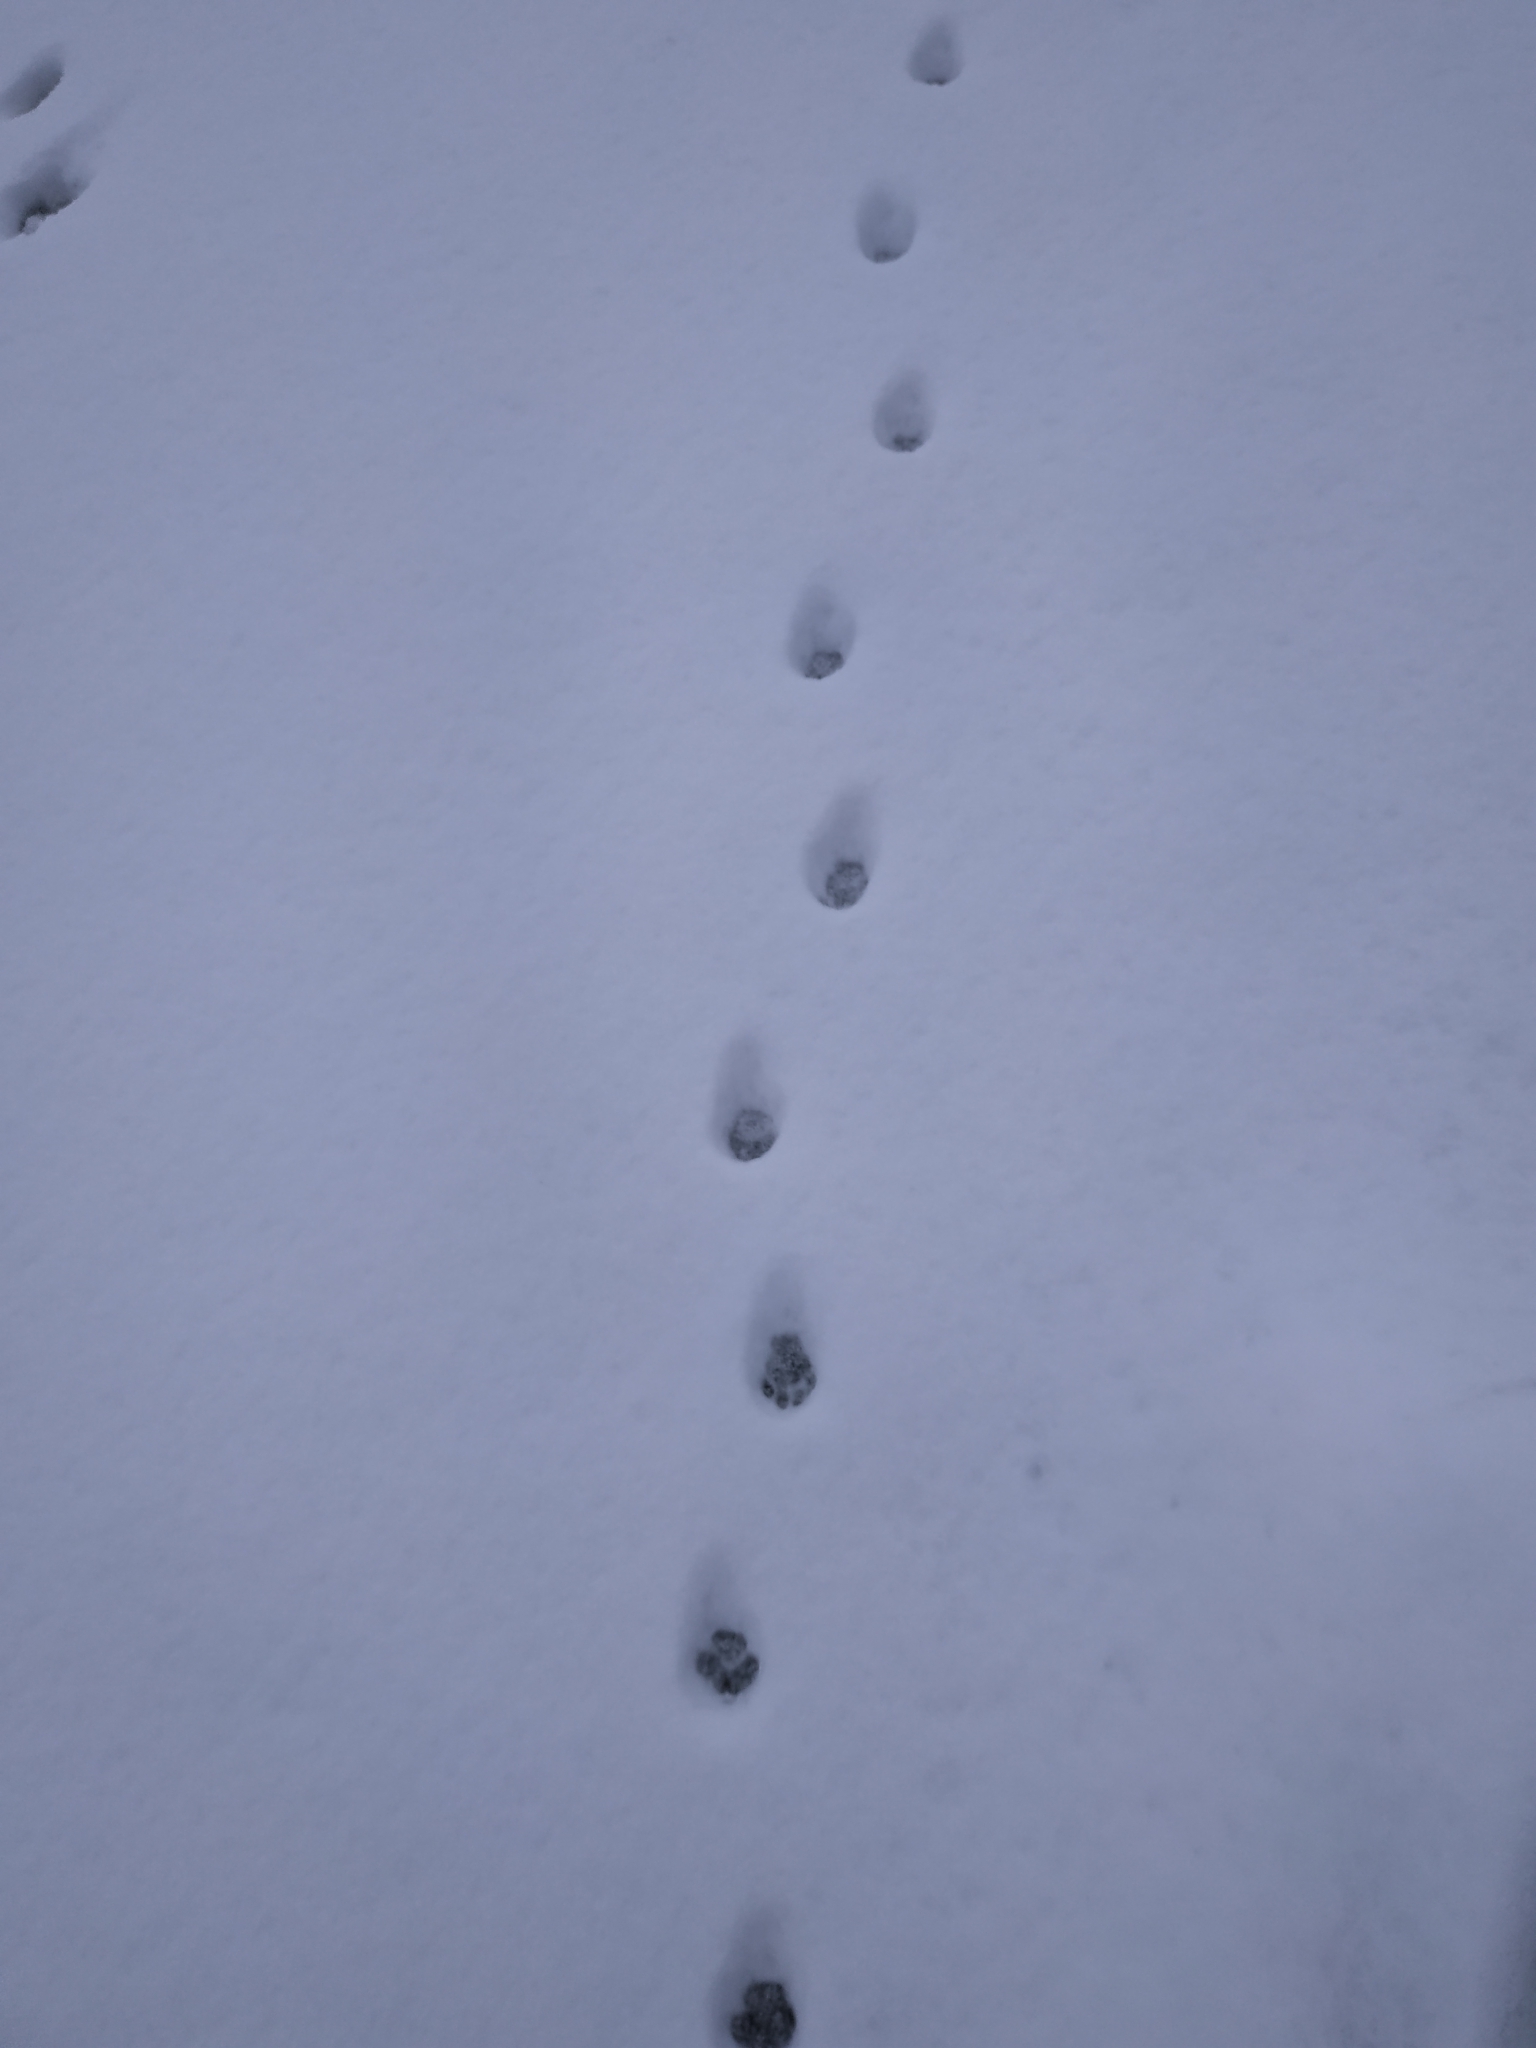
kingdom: Animalia
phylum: Chordata
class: Mammalia
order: Carnivora
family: Felidae
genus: Felis
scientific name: Felis catus
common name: Domestic cat
